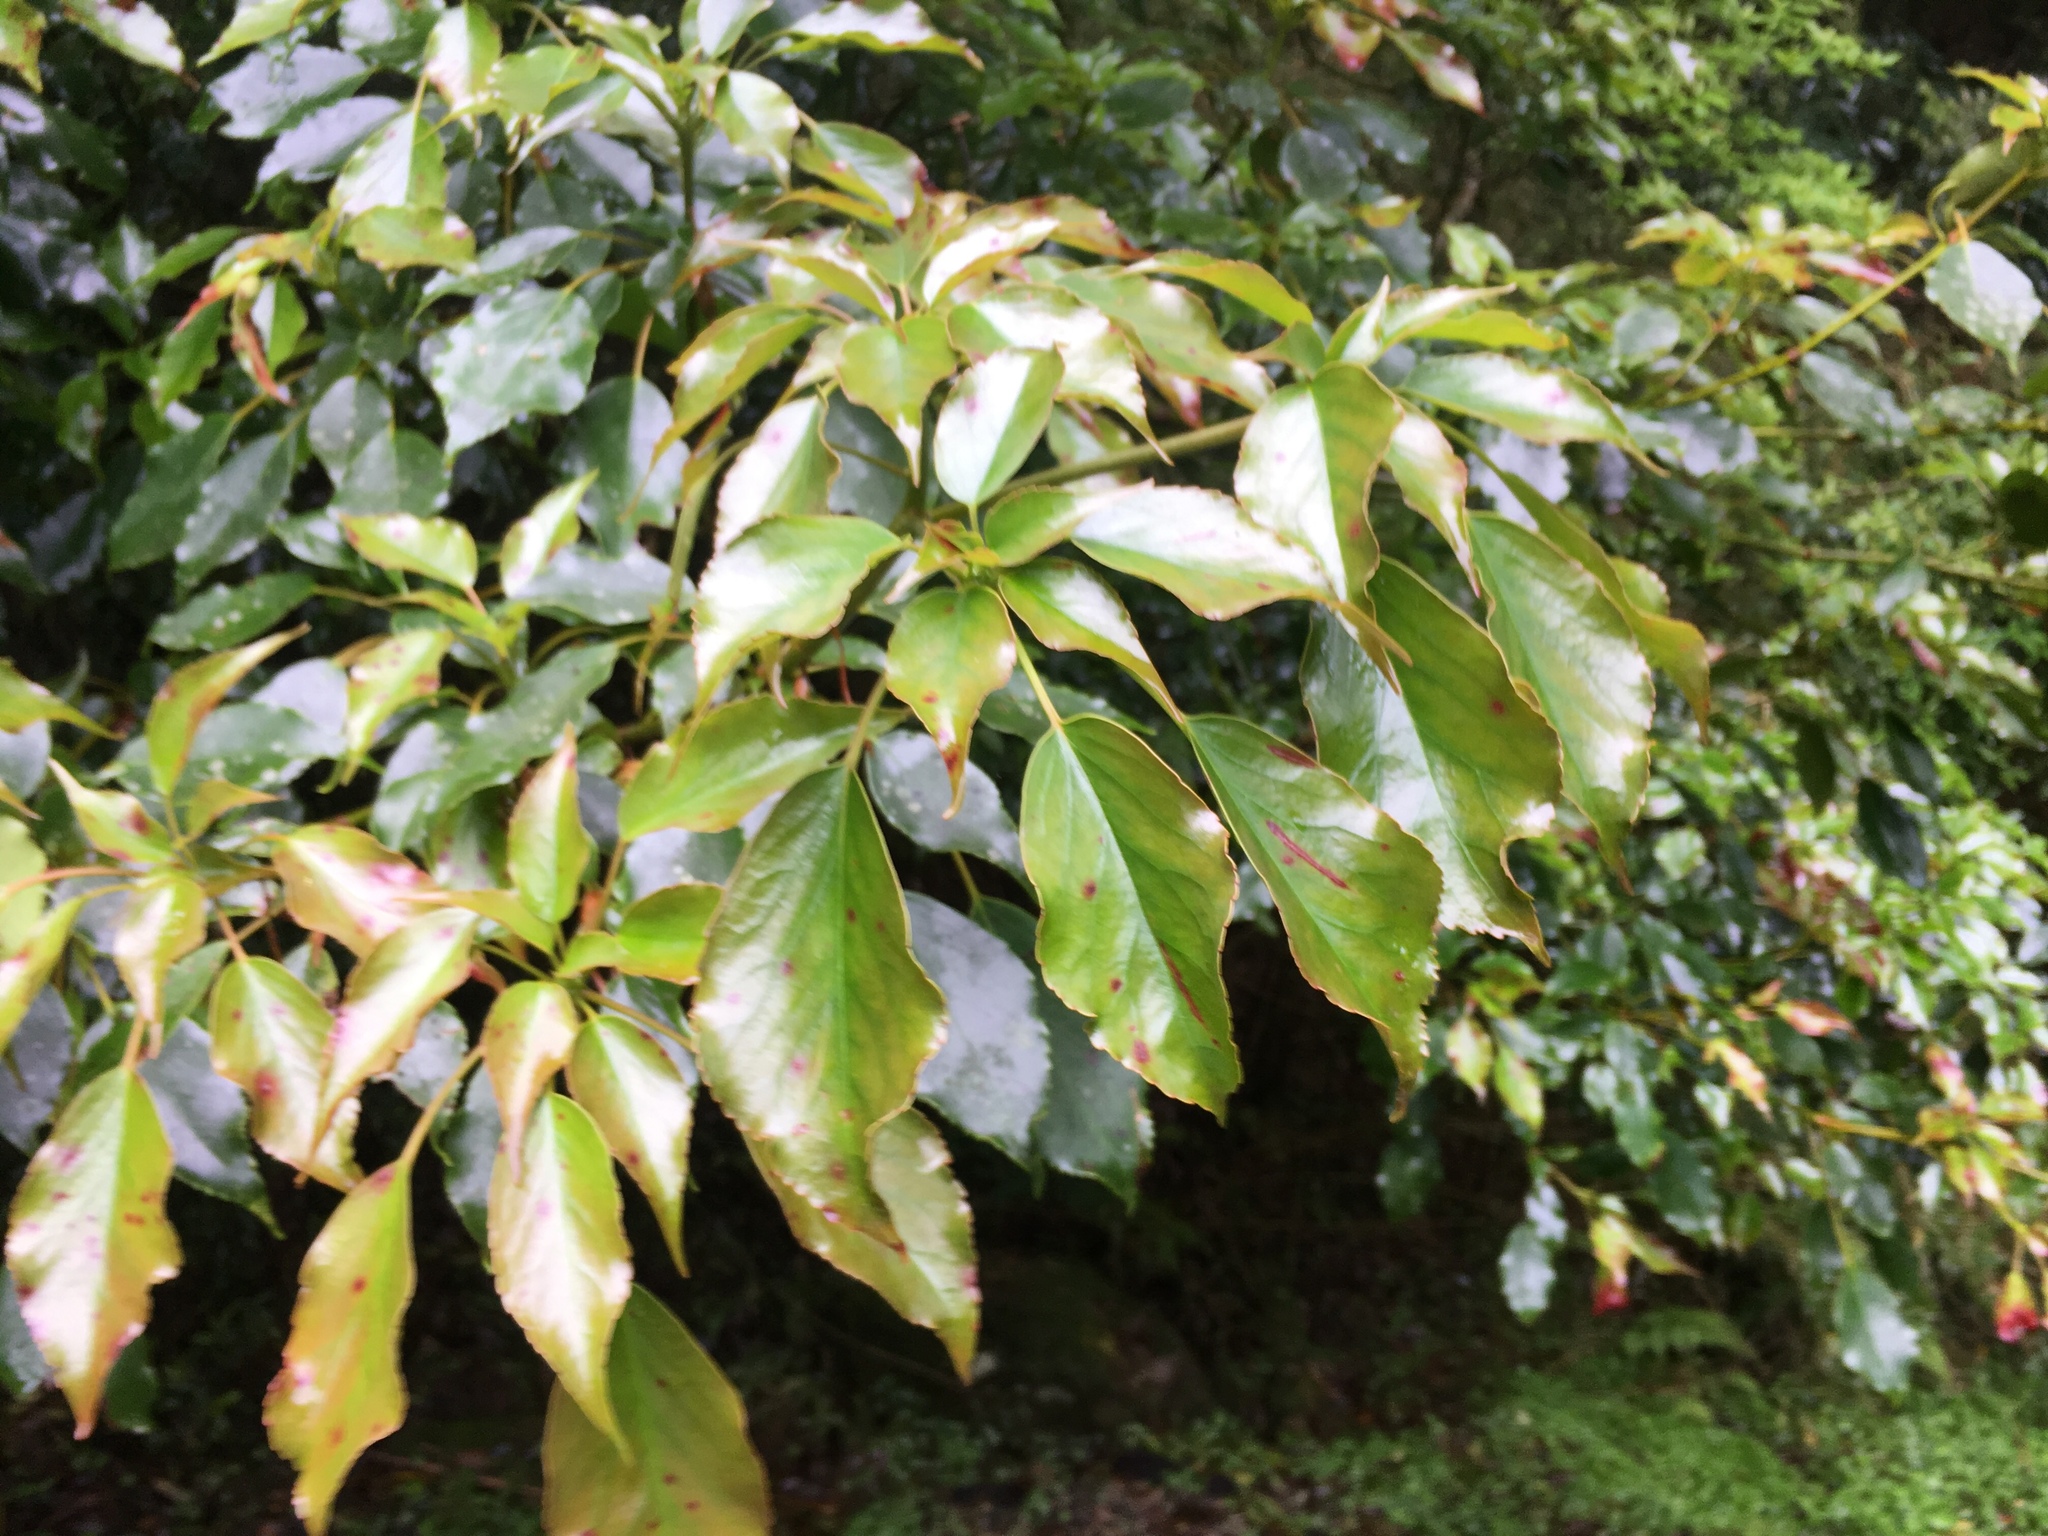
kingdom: Plantae
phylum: Tracheophyta
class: Magnoliopsida
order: Trochodendrales
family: Trochodendraceae
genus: Trochodendron
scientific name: Trochodendron aralioides
